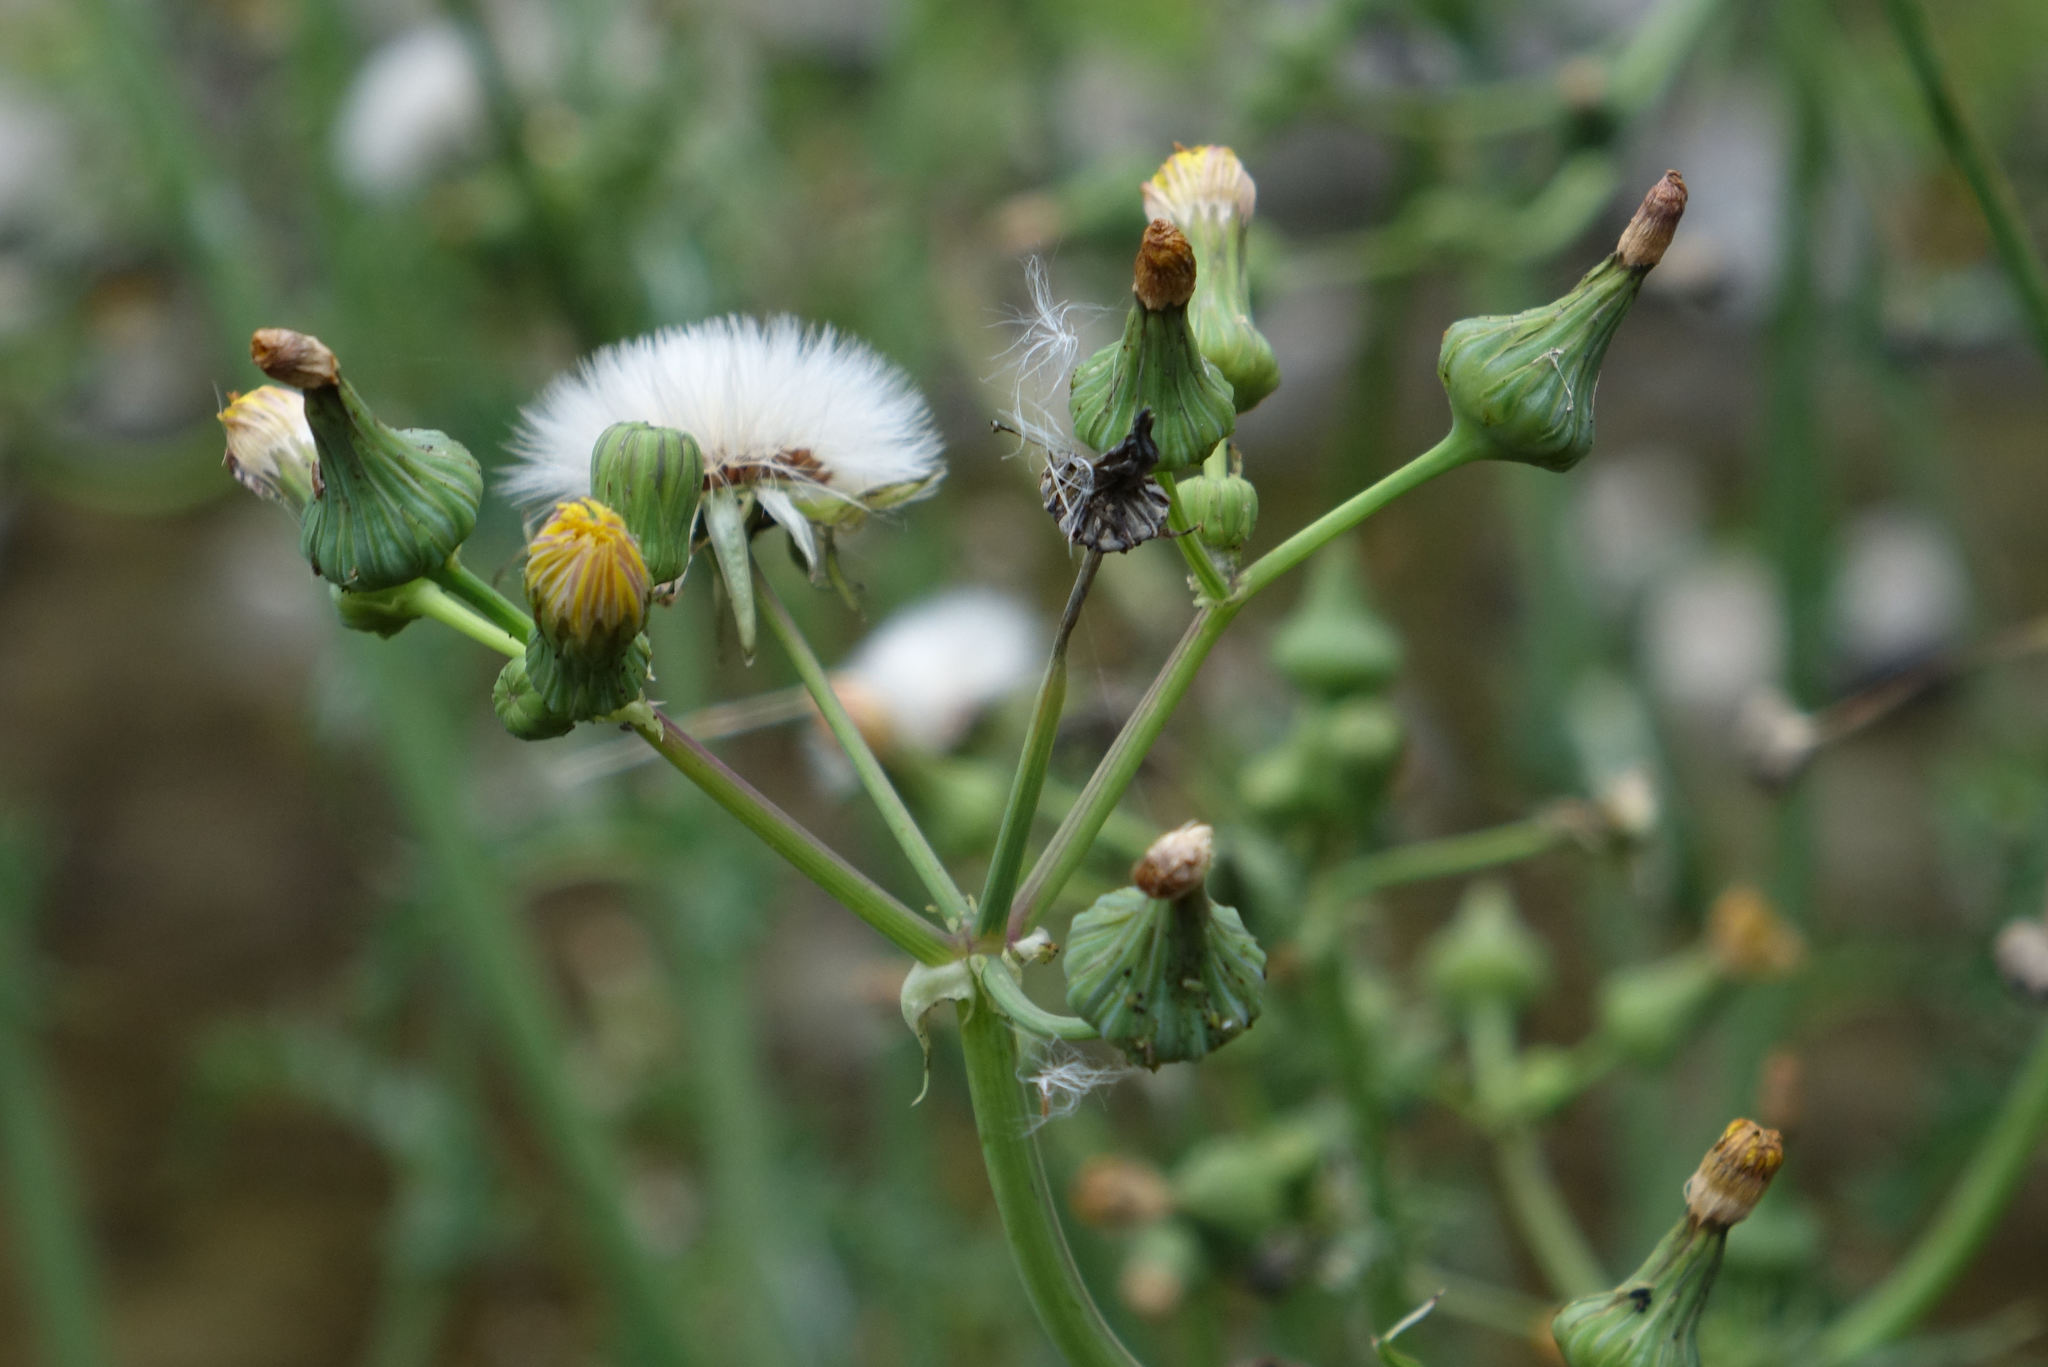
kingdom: Plantae
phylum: Tracheophyta
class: Magnoliopsida
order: Asterales
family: Asteraceae
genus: Sonchus
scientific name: Sonchus asper
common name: Prickly sow-thistle
